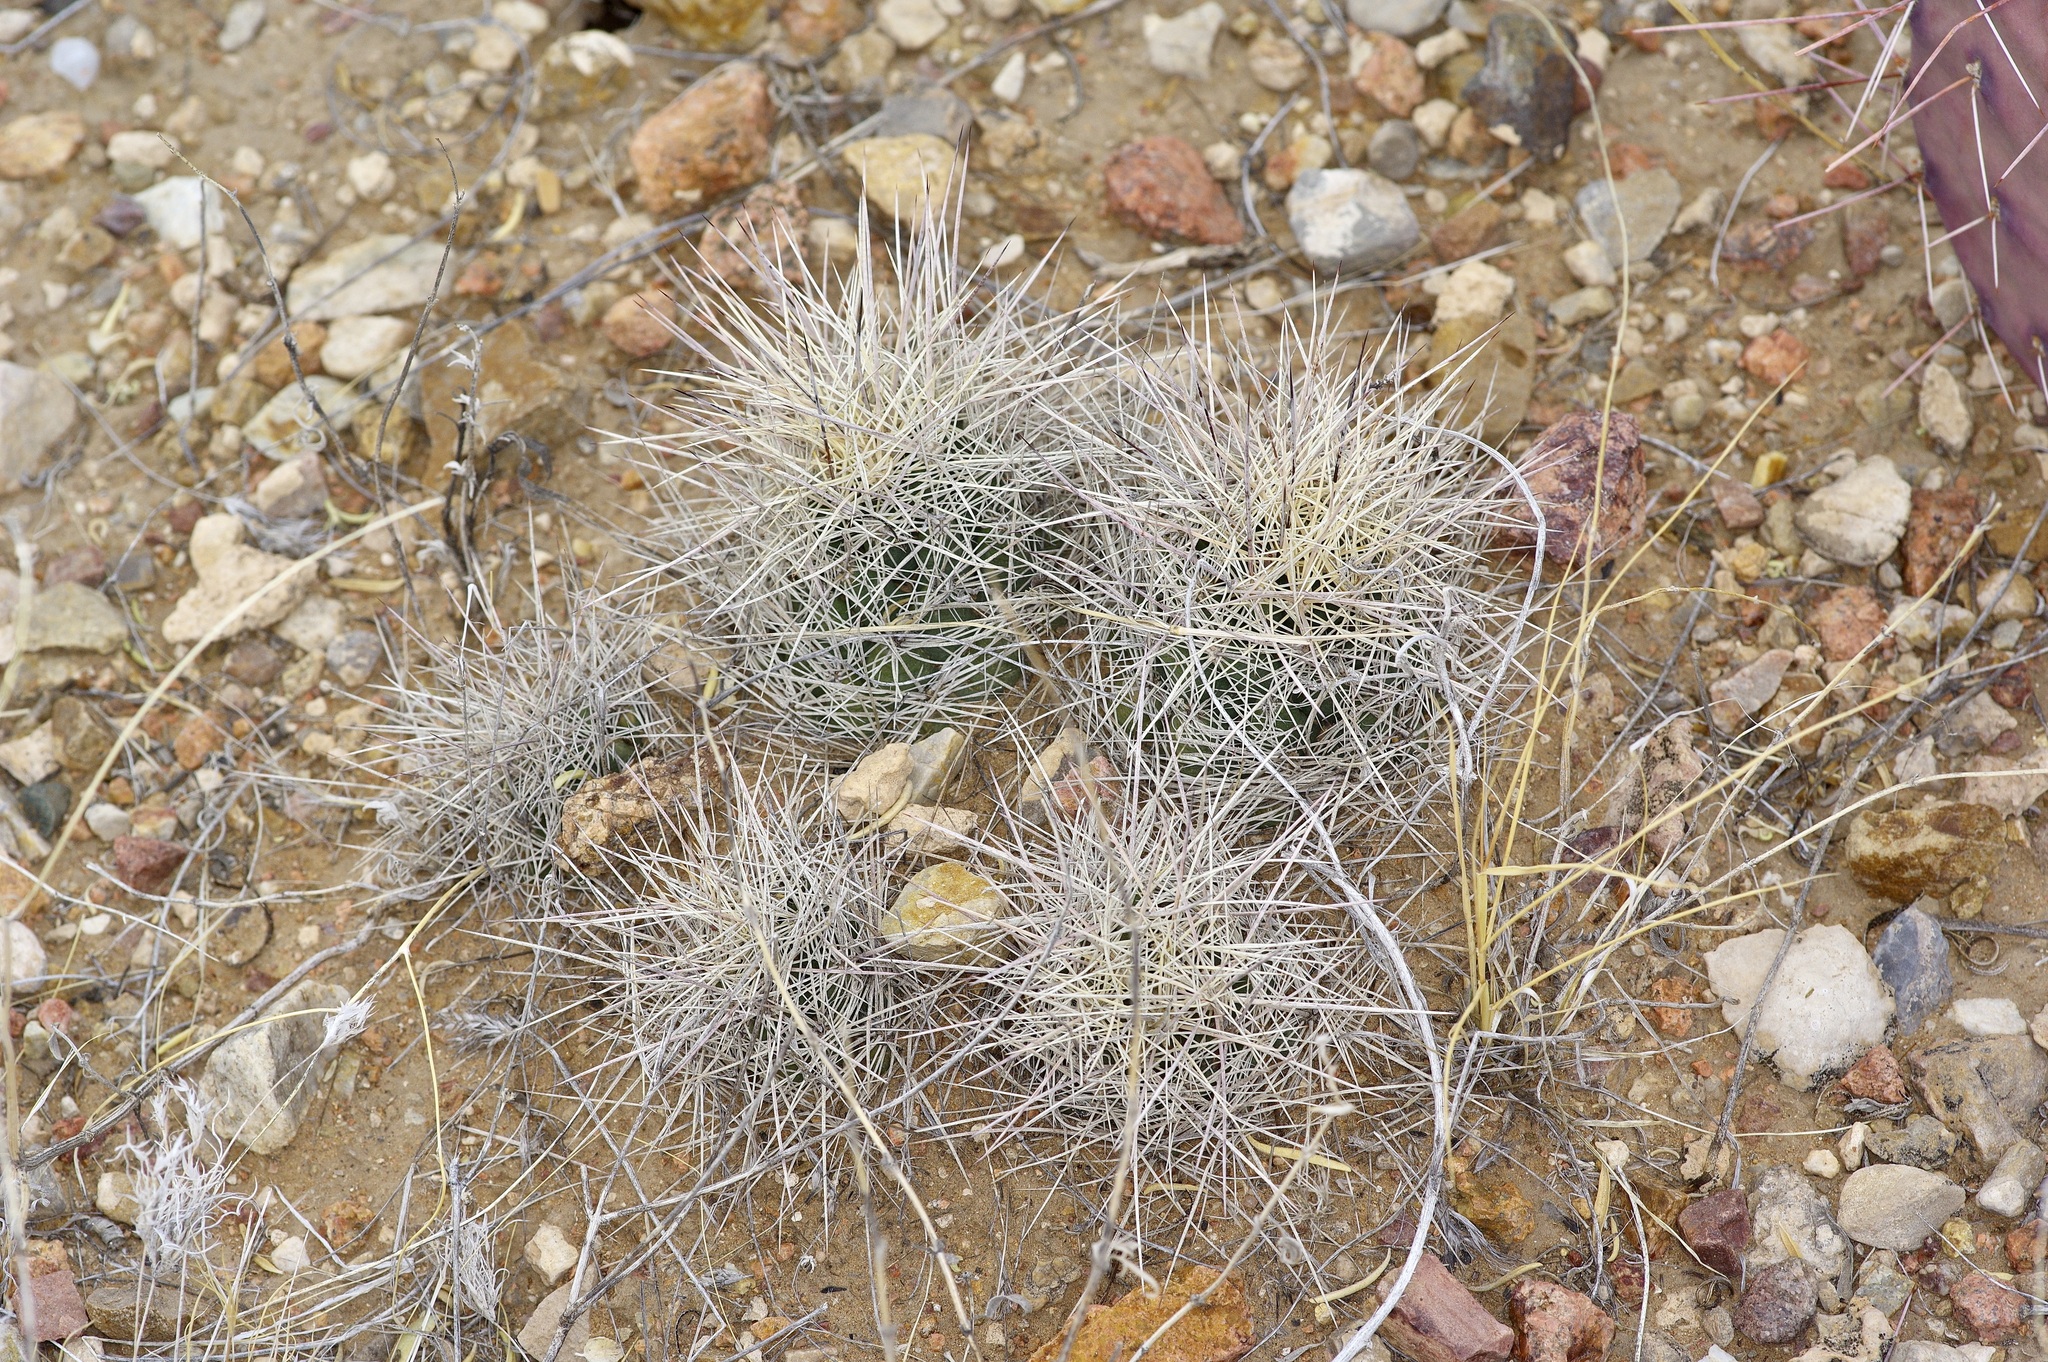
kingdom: Plantae
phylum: Tracheophyta
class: Magnoliopsida
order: Caryophyllales
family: Cactaceae
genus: Coryphantha
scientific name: Coryphantha macromeris
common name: Nipple beehive cactus
